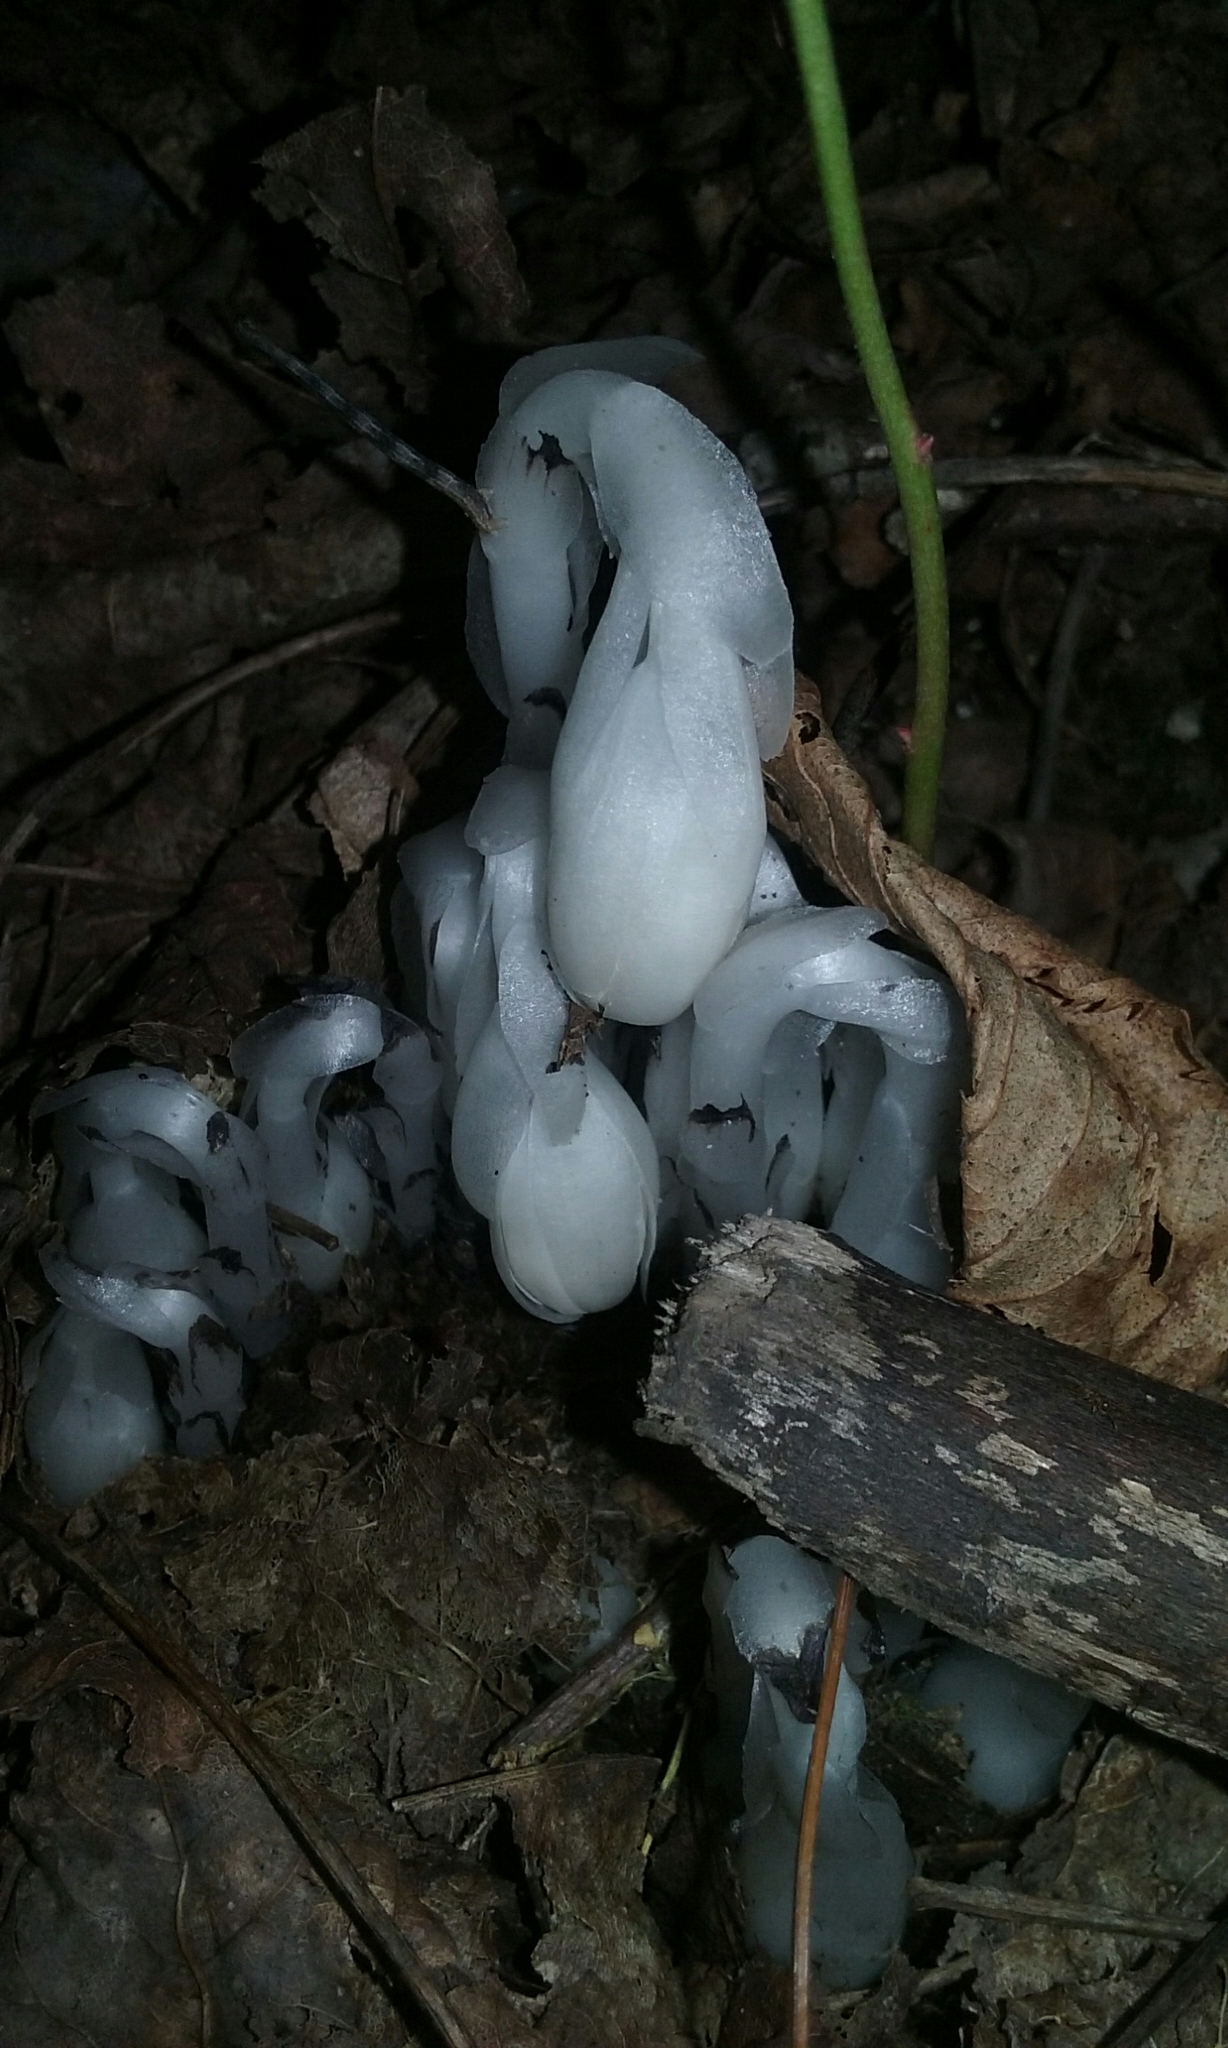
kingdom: Plantae
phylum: Tracheophyta
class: Magnoliopsida
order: Ericales
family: Ericaceae
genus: Monotropa
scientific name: Monotropa uniflora
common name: Convulsion root
